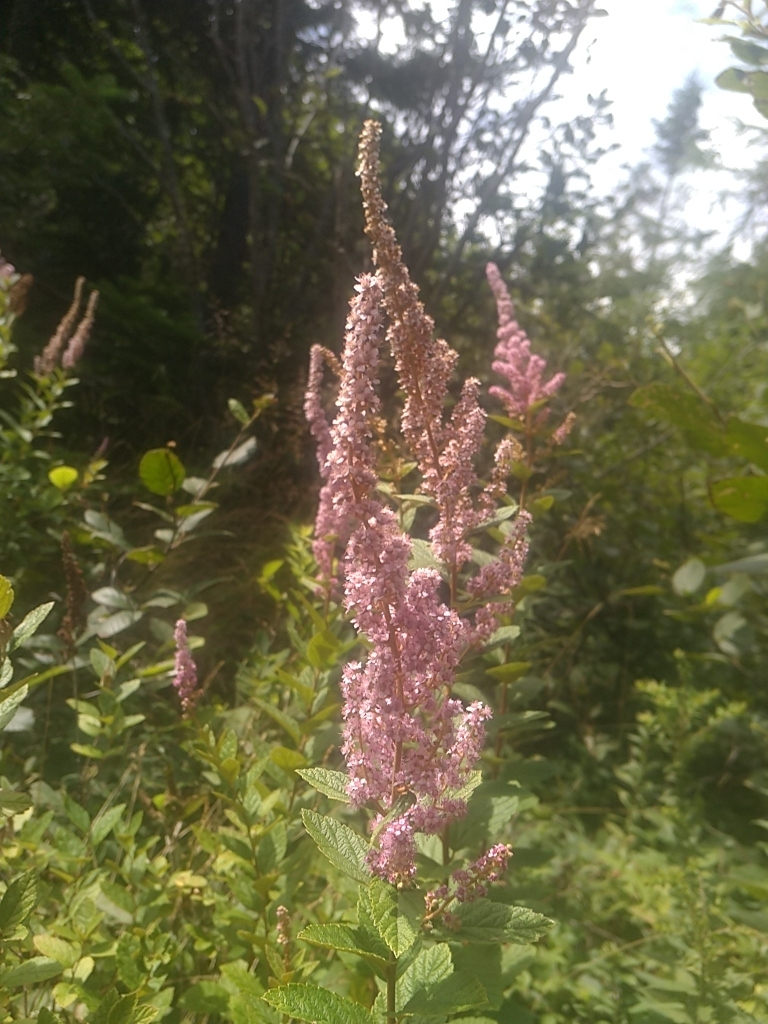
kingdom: Plantae
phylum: Tracheophyta
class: Magnoliopsida
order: Rosales
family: Rosaceae
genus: Spiraea
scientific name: Spiraea tomentosa
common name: Hardhack
